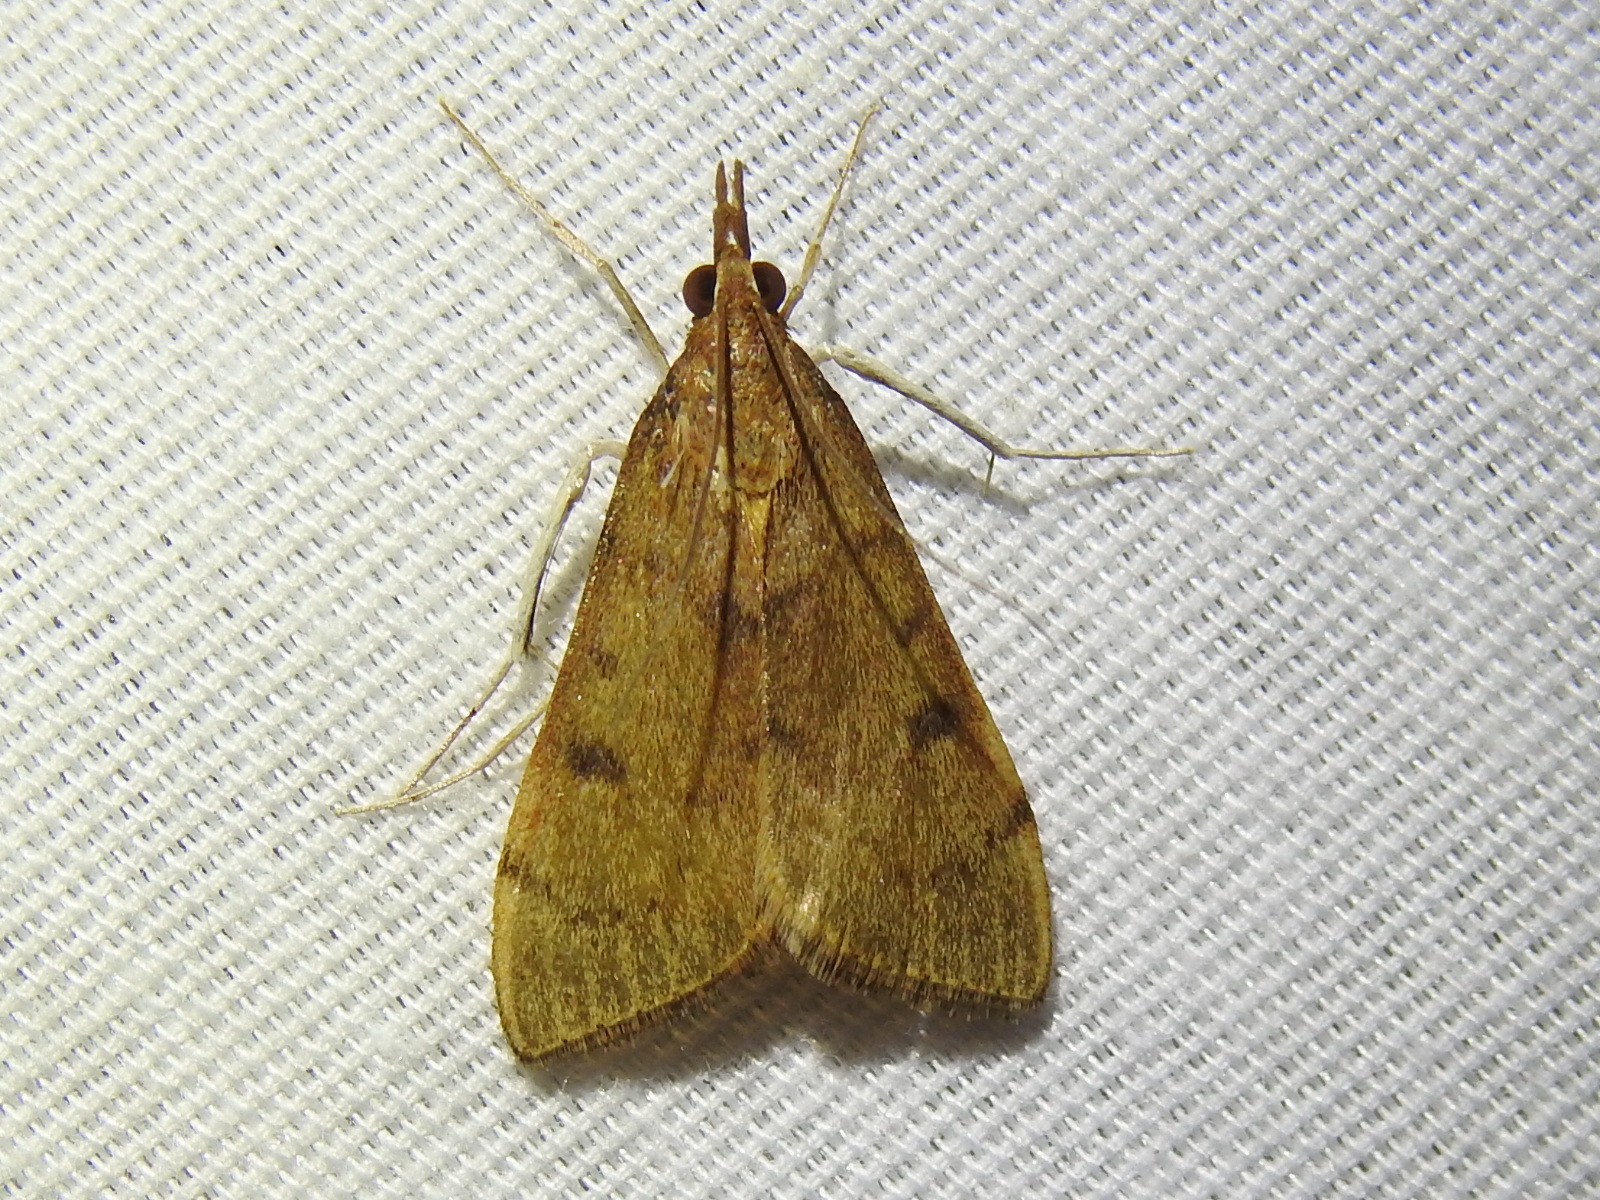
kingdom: Animalia
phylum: Arthropoda
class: Insecta
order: Lepidoptera
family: Crambidae
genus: Uresiphita
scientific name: Uresiphita reversalis
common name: Genista broom moth
